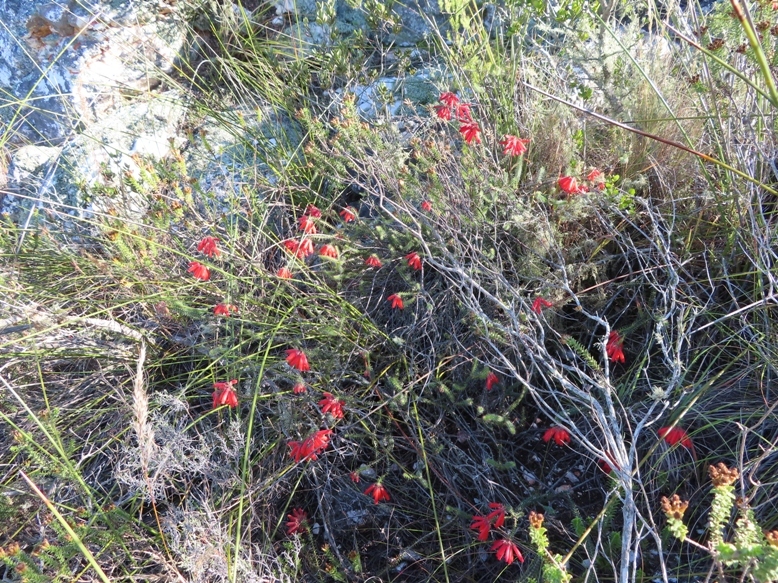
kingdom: Plantae
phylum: Tracheophyta
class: Magnoliopsida
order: Ericales
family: Ericaceae
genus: Erica
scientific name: Erica cerinthoides
